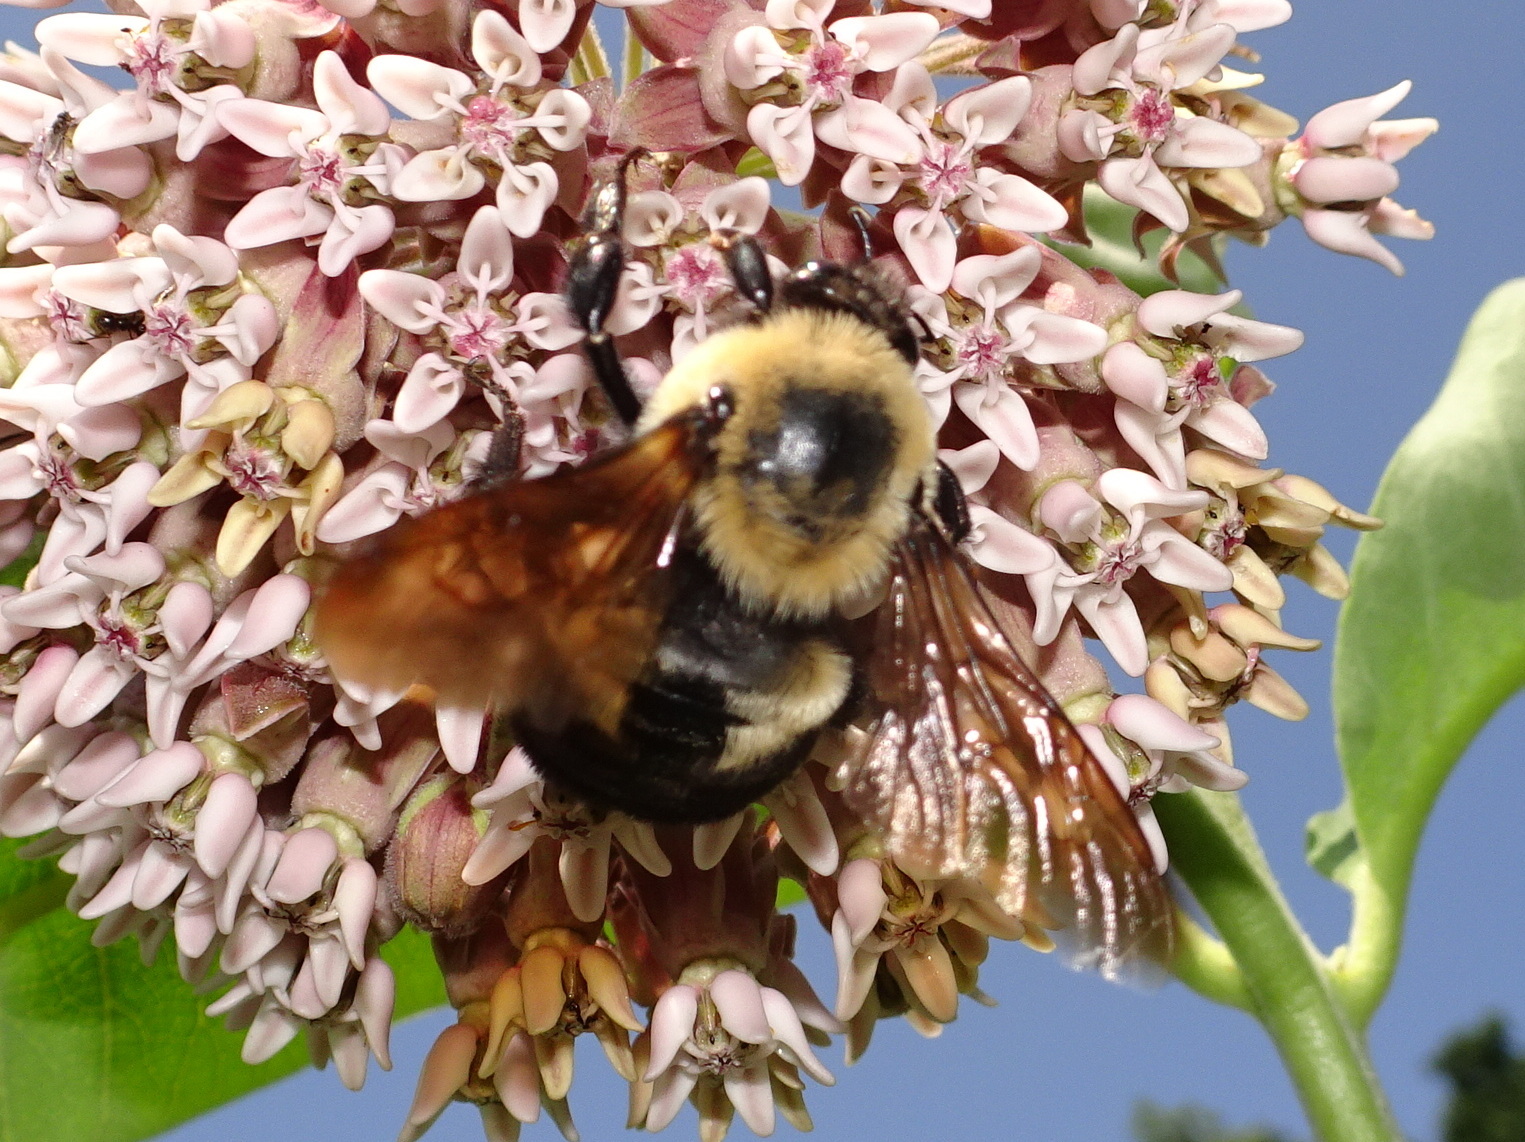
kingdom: Animalia
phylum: Arthropoda
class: Insecta
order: Hymenoptera
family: Apidae
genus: Bombus
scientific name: Bombus griseocollis
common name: Brown-belted bumble bee
